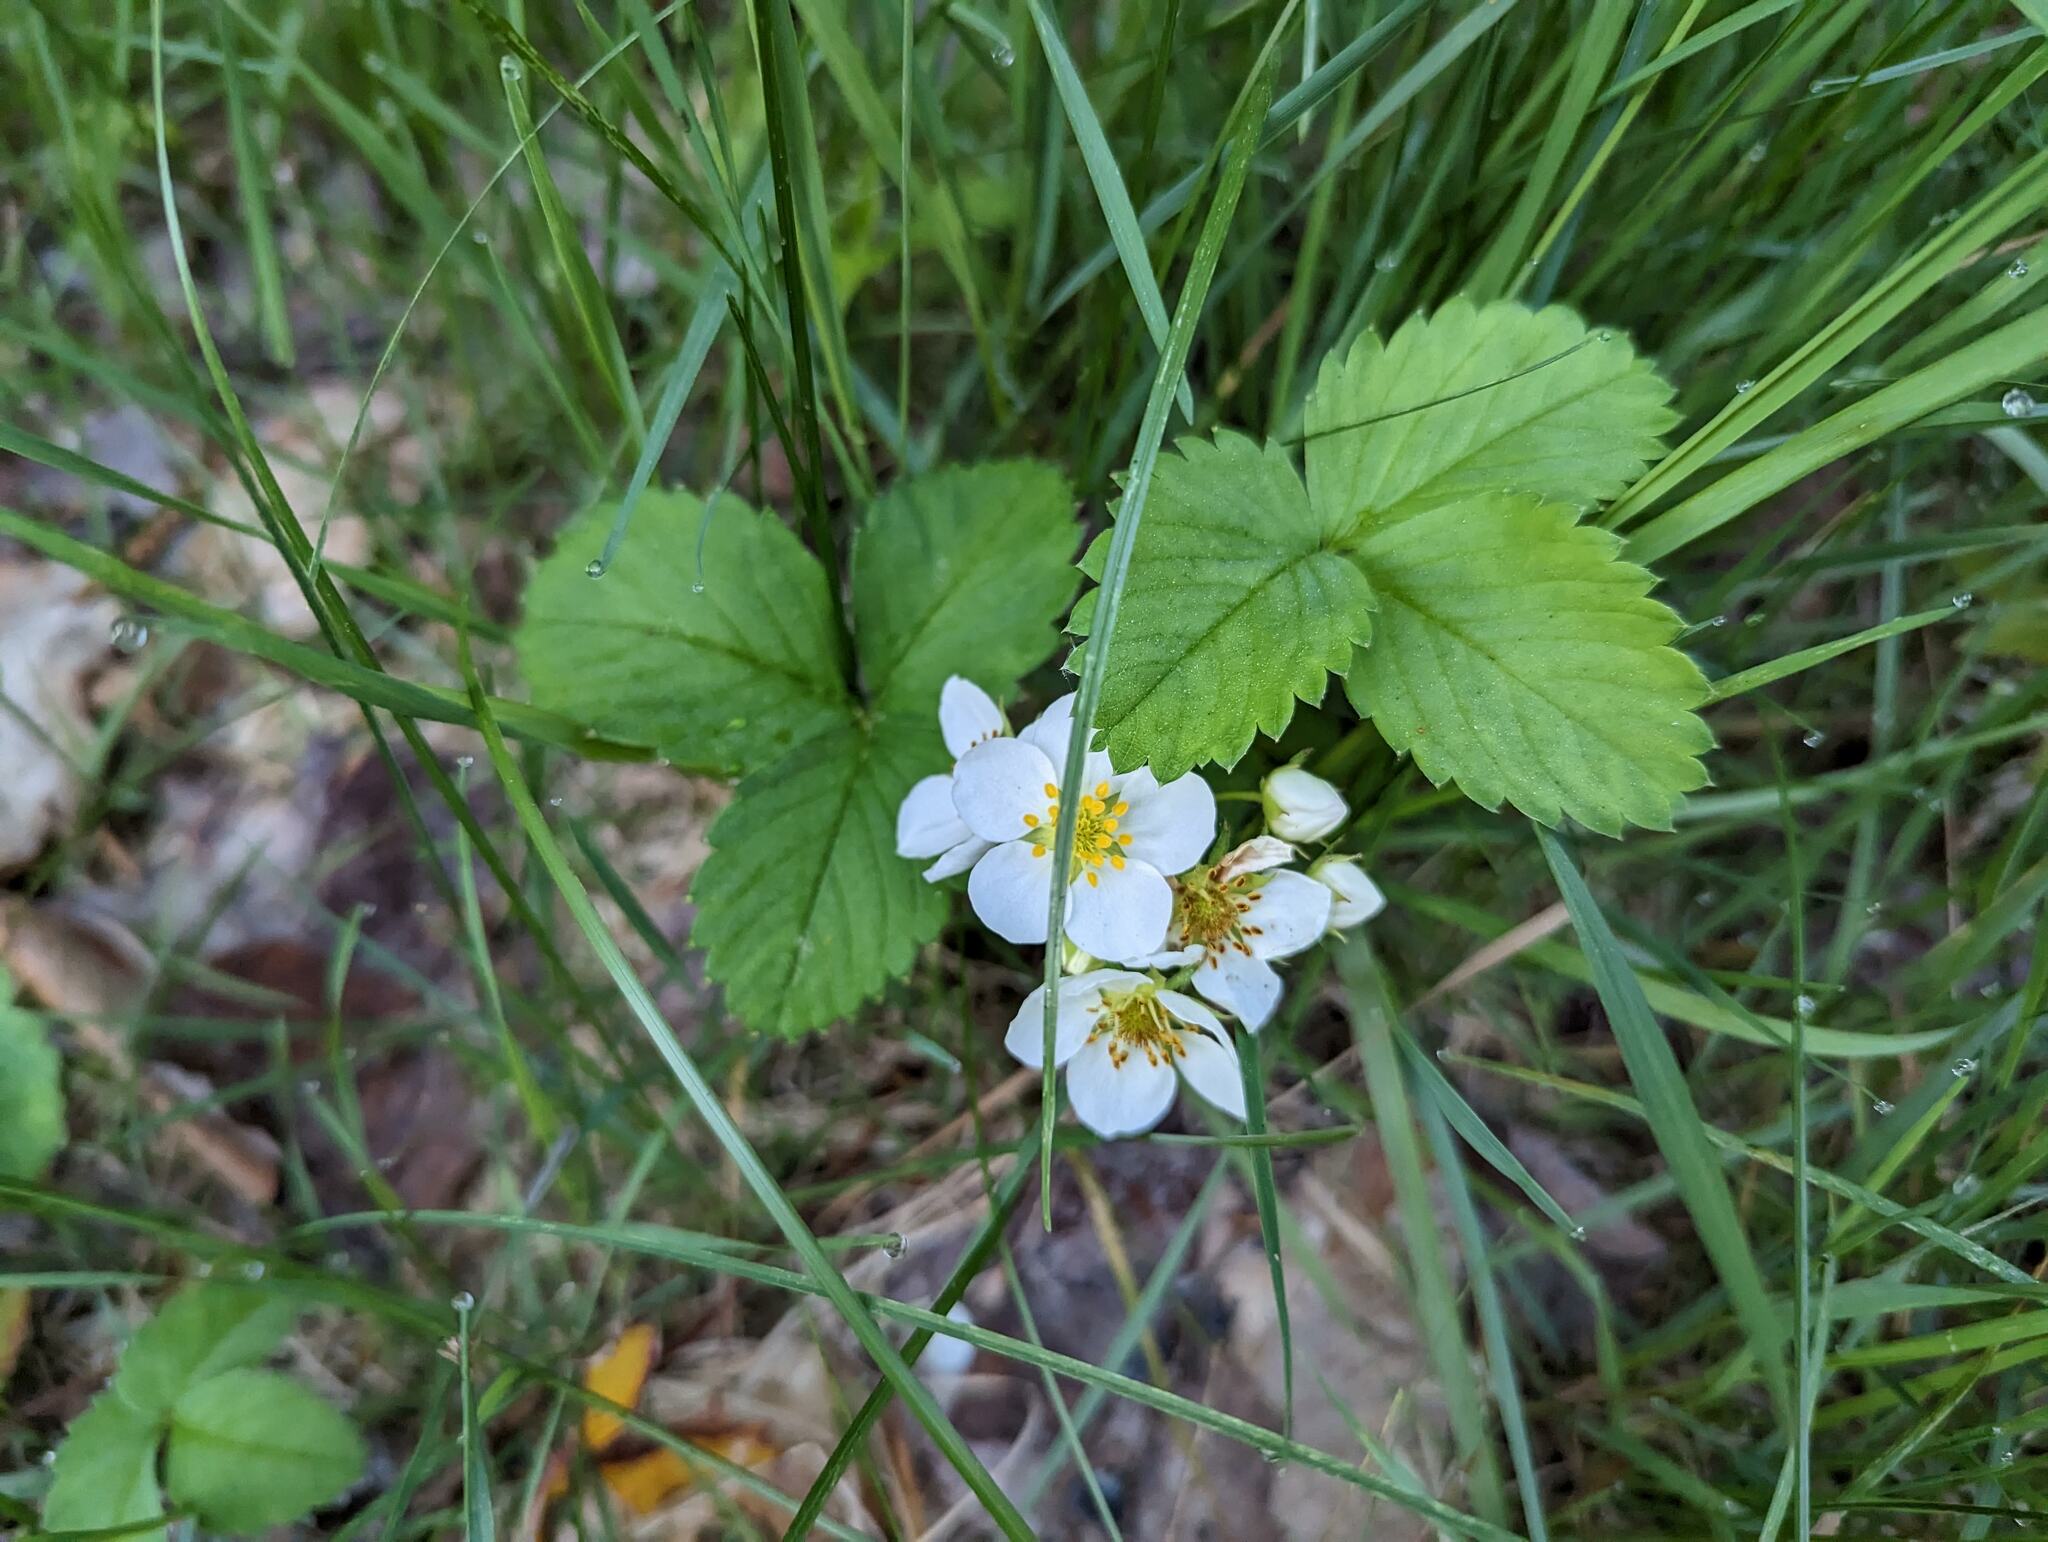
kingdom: Plantae
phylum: Tracheophyta
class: Magnoliopsida
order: Rosales
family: Rosaceae
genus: Fragaria
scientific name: Fragaria virginiana
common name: Thickleaved wild strawberry
